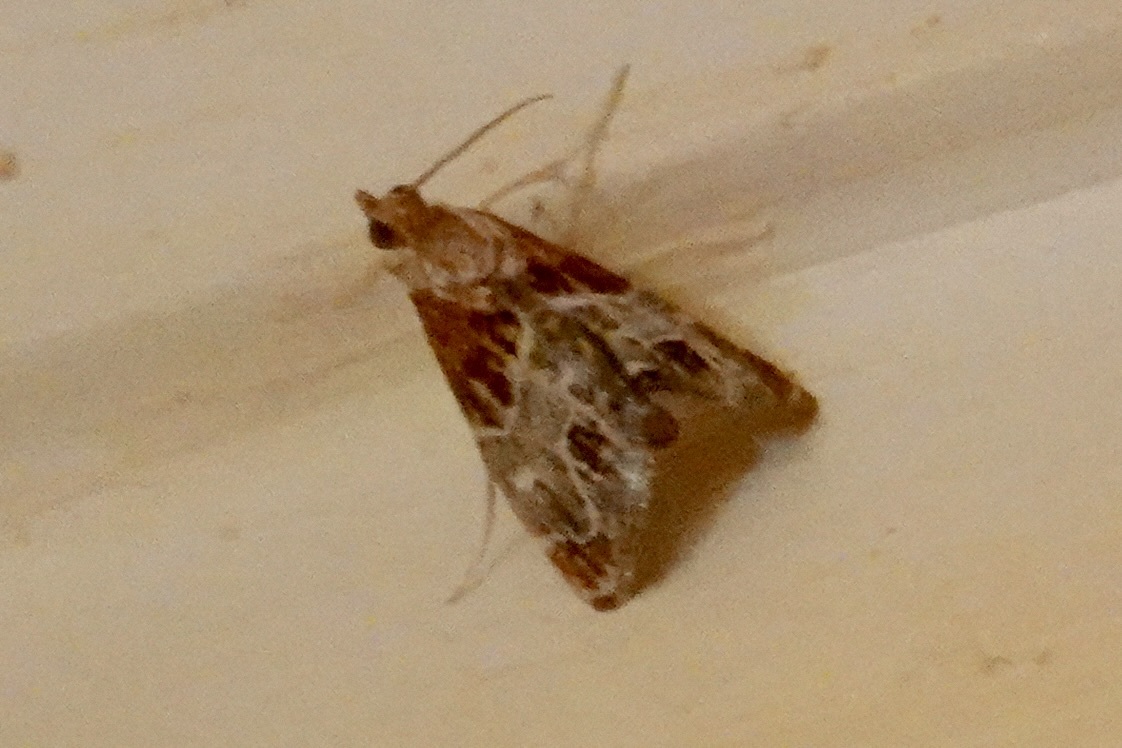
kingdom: Animalia
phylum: Arthropoda
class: Insecta
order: Lepidoptera
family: Crambidae
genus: Chalcoela
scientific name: Chalcoela pegasalis
